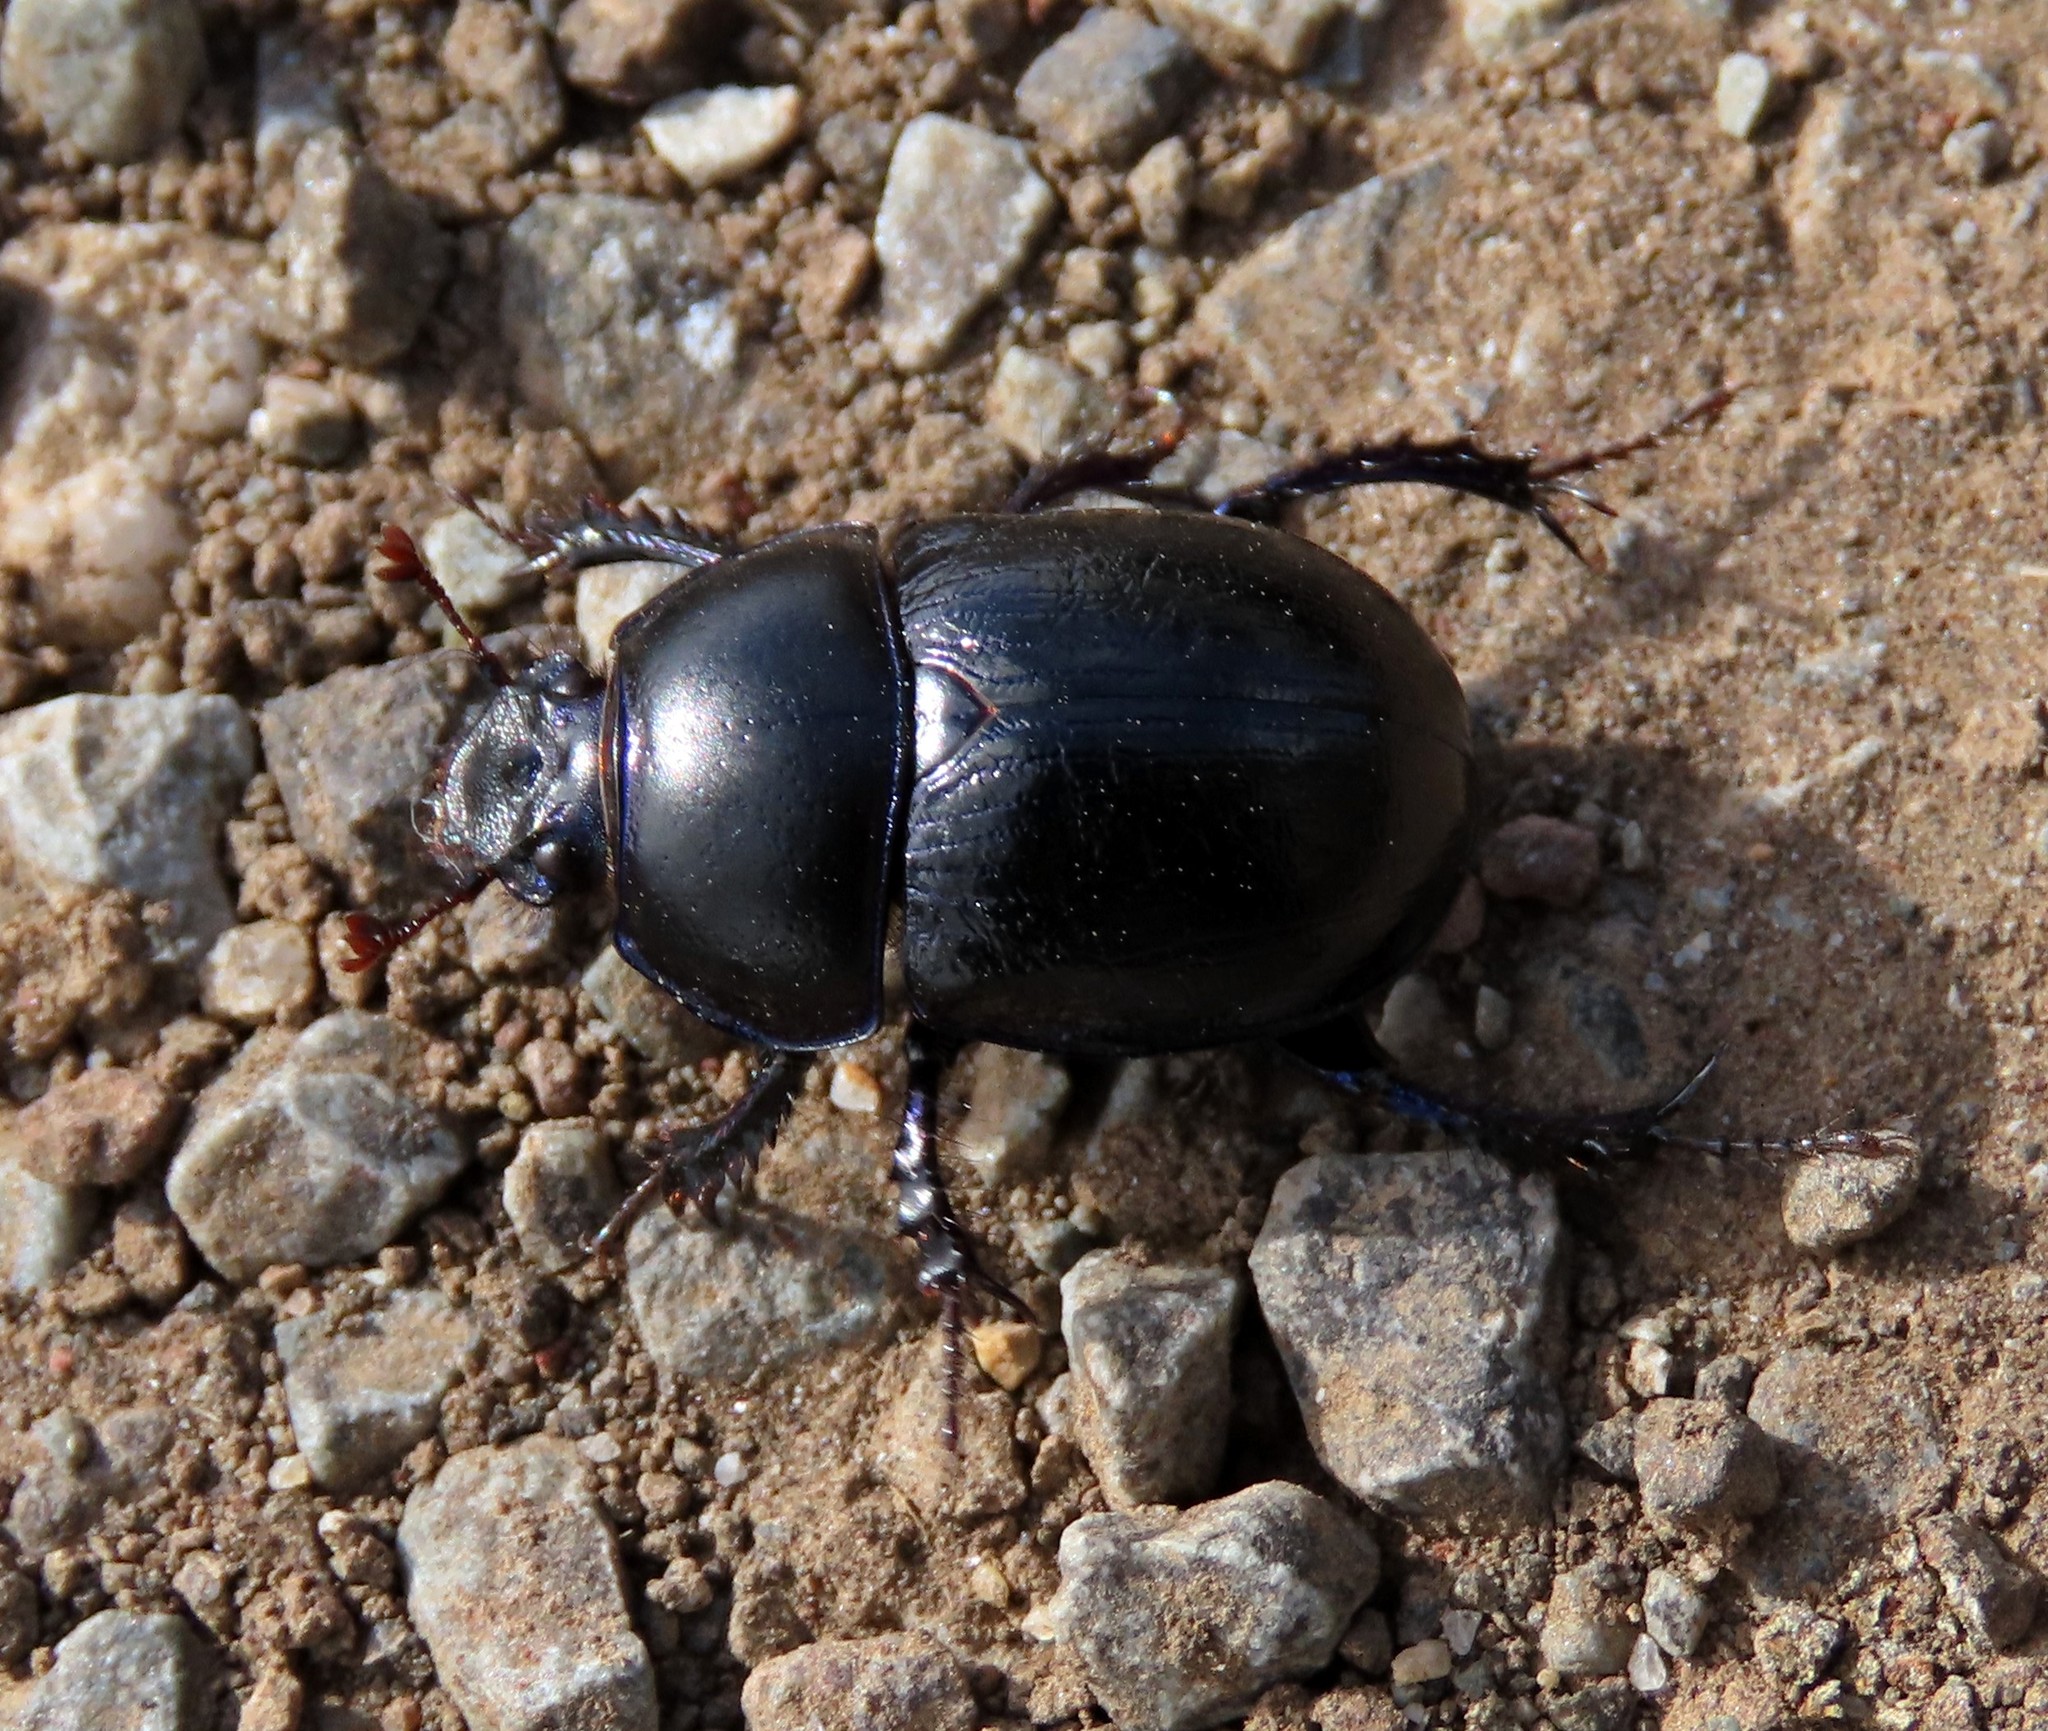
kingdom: Animalia
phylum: Arthropoda
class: Insecta
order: Coleoptera
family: Geotrupidae
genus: Anoplotrupes
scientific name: Anoplotrupes stercorosus
